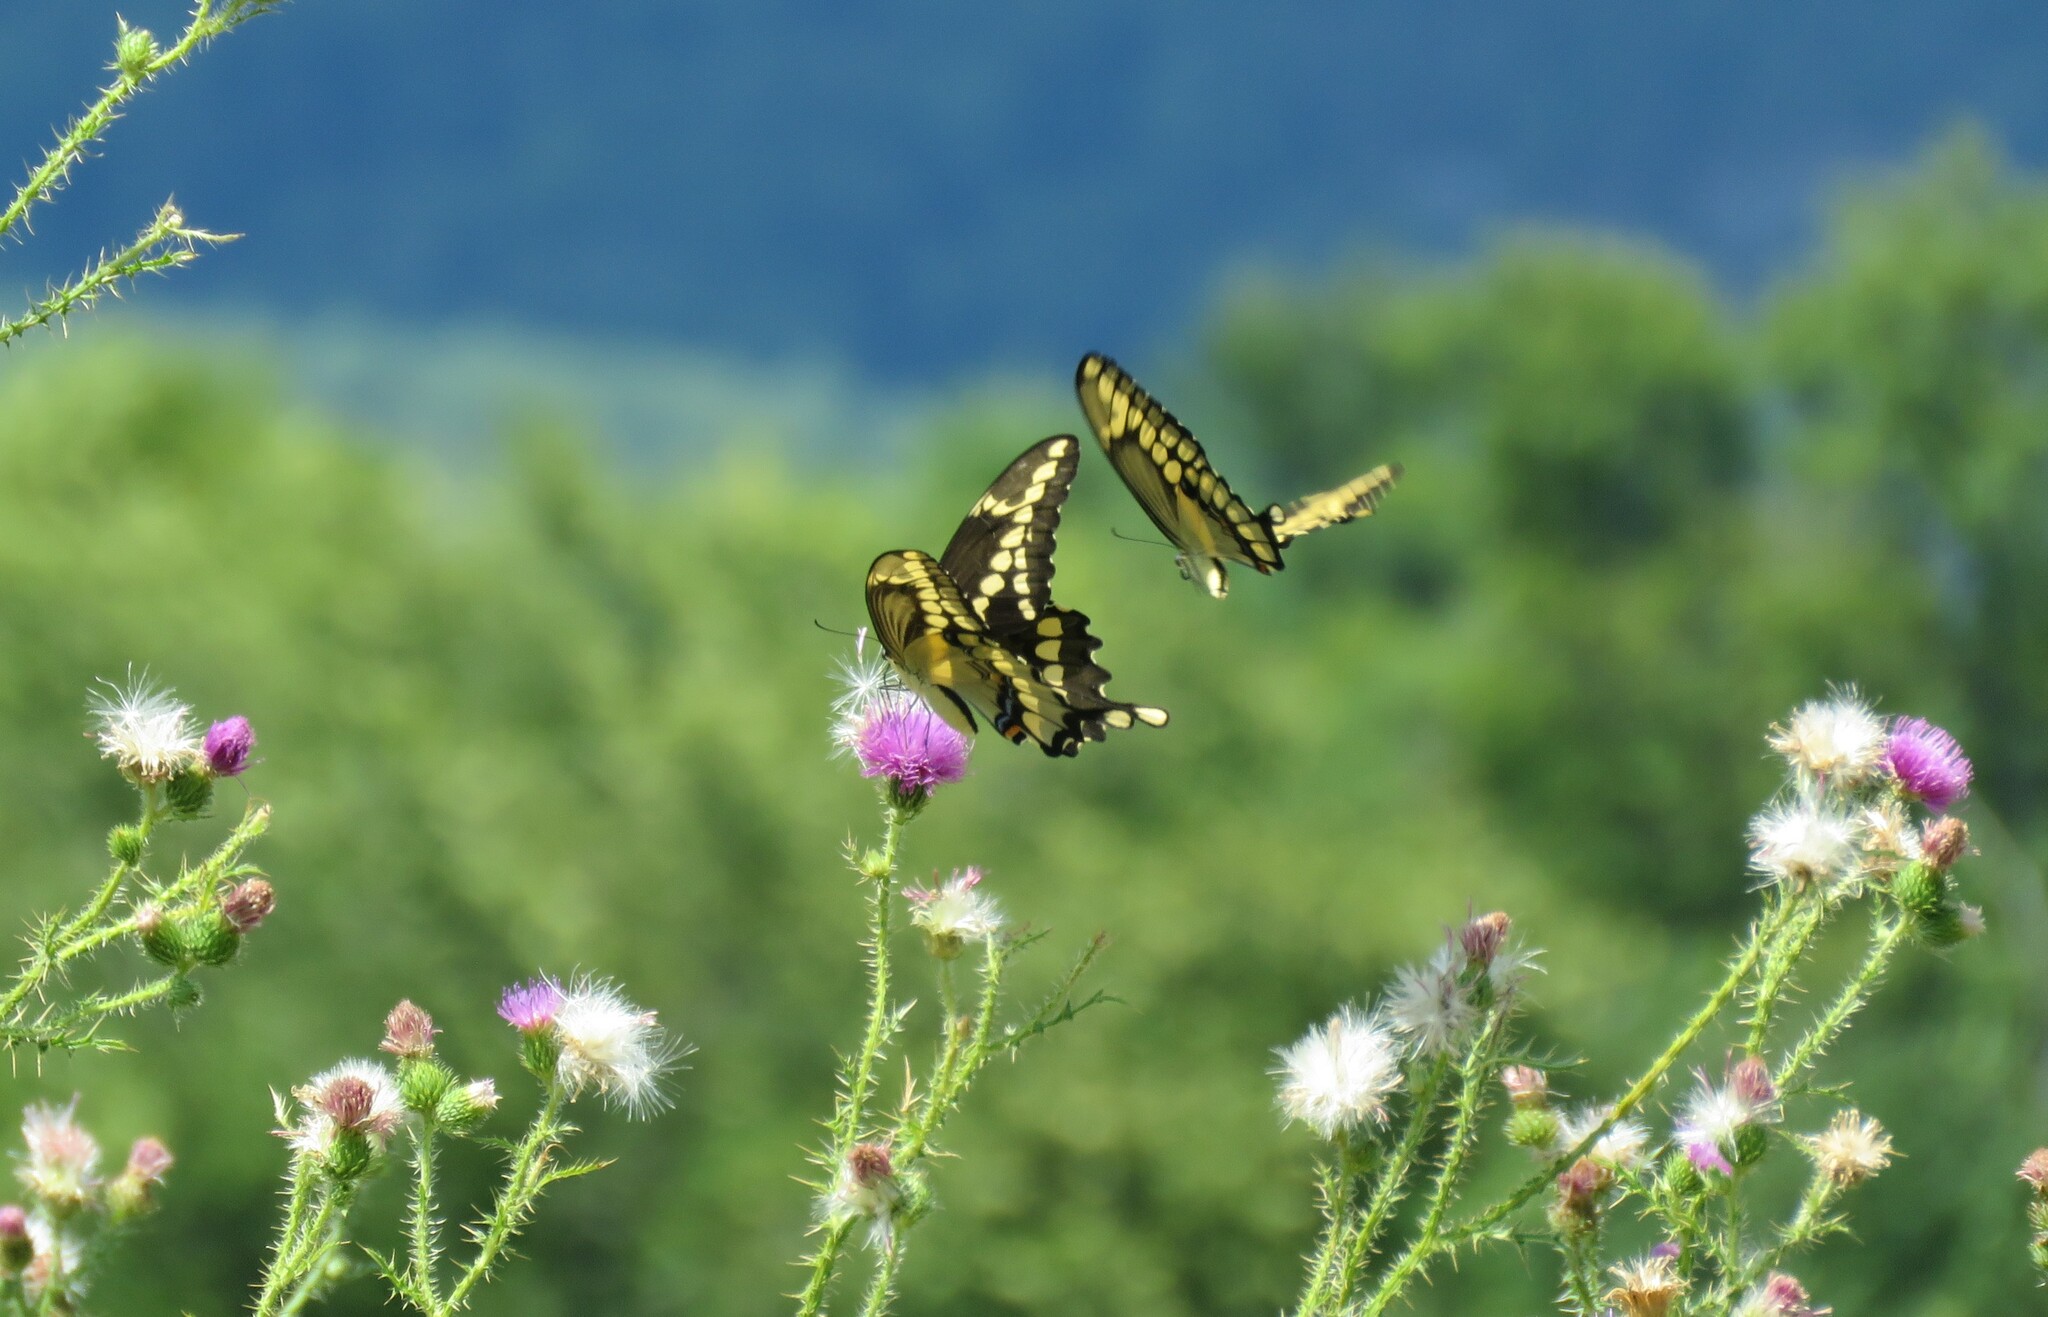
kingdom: Animalia
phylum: Arthropoda
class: Insecta
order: Lepidoptera
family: Papilionidae
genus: Papilio
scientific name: Papilio cresphontes
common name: Giant swallowtail
